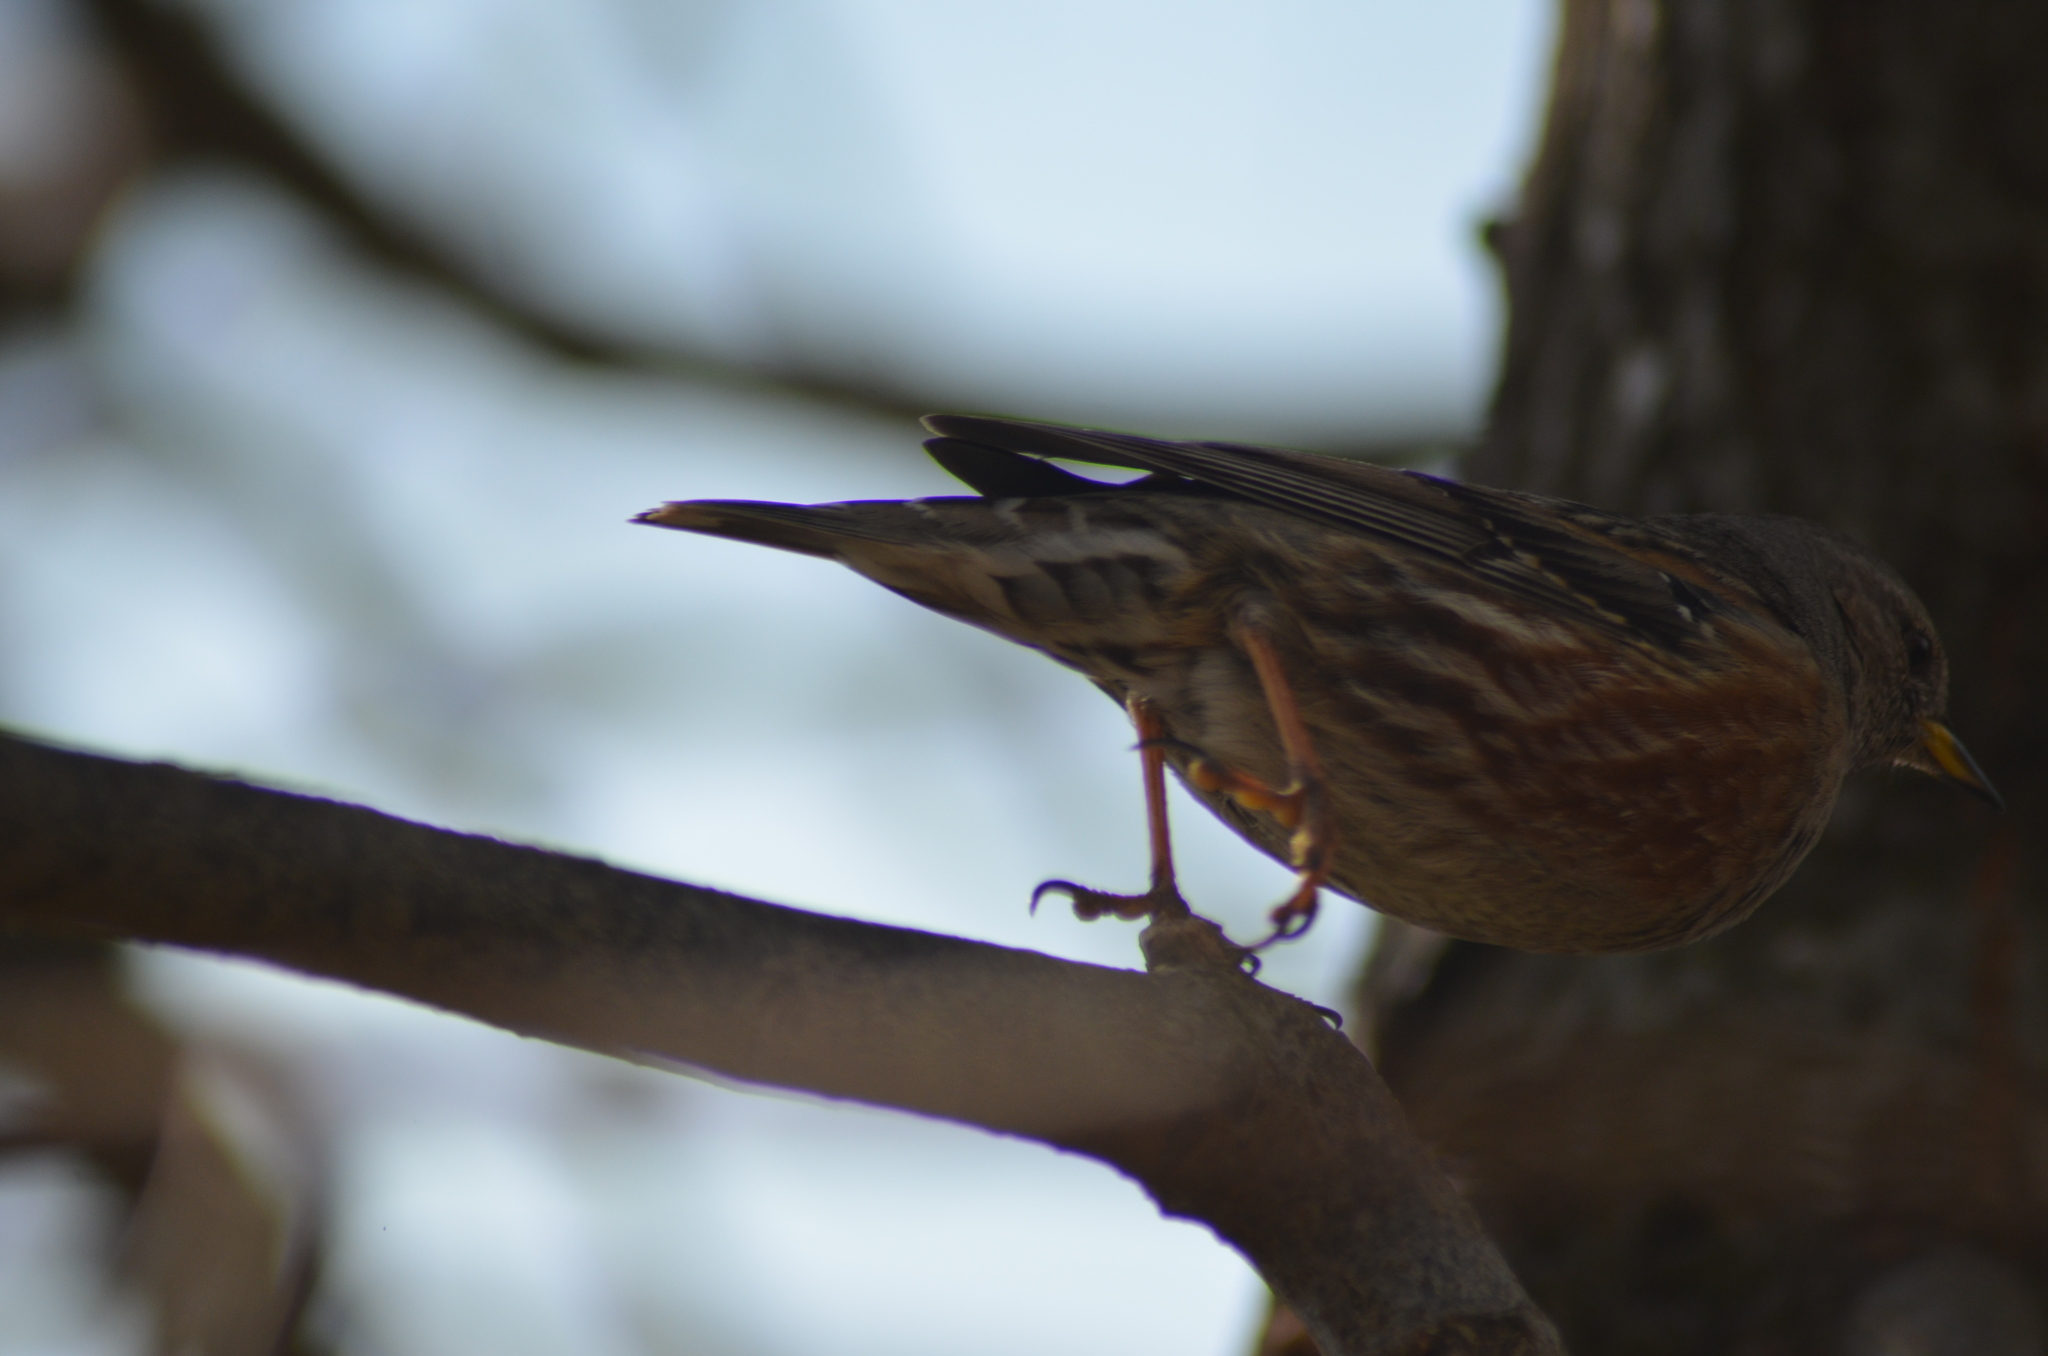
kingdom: Animalia
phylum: Chordata
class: Aves
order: Passeriformes
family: Prunellidae
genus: Prunella
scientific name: Prunella collaris
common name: Alpine accentor
